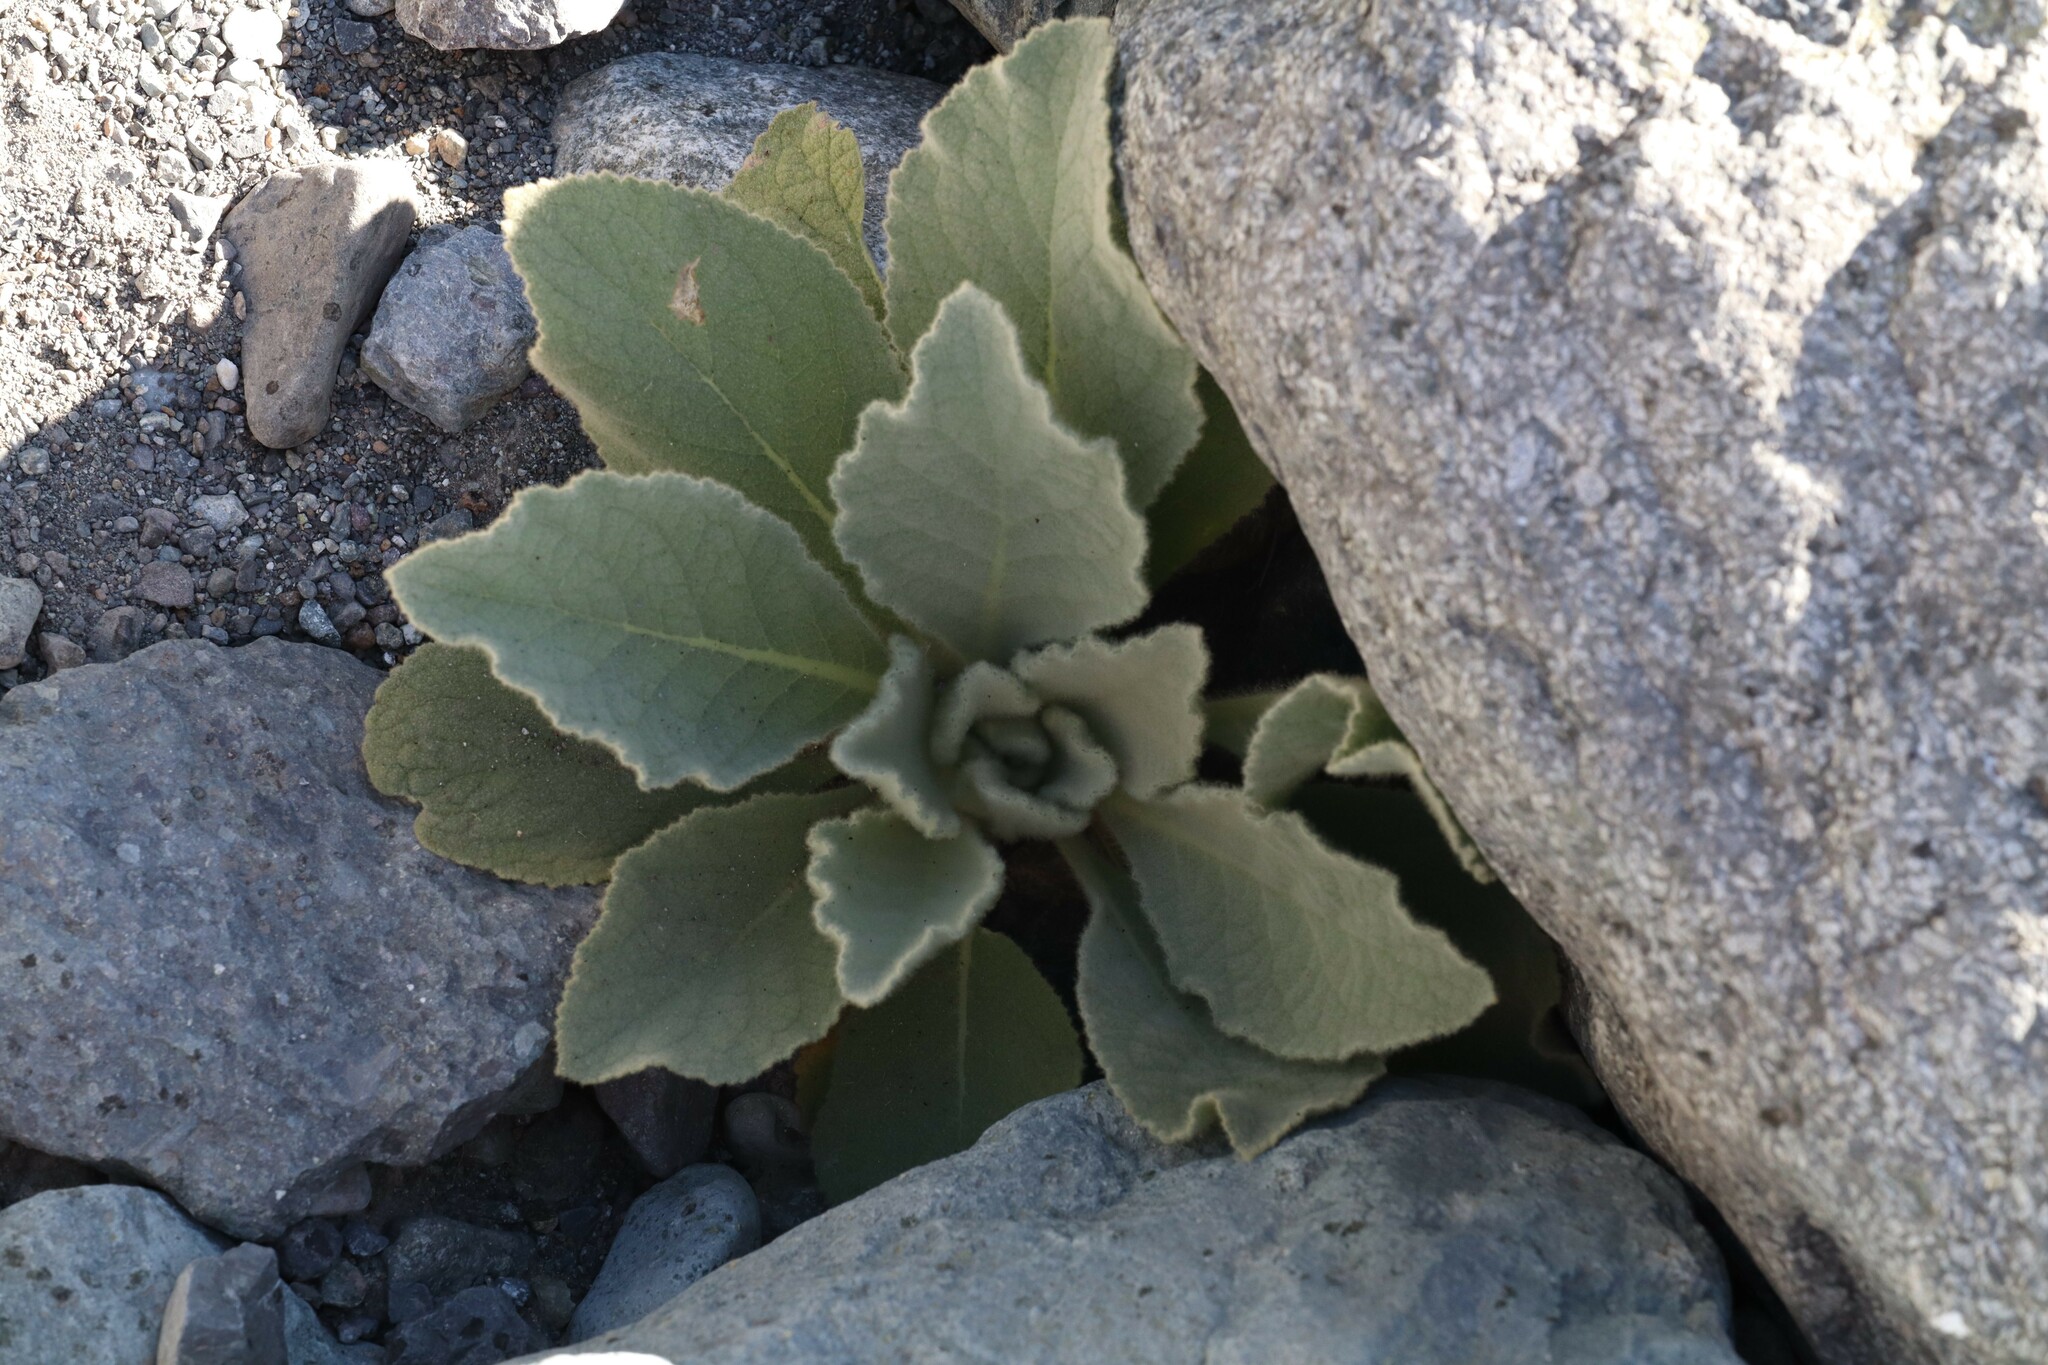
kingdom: Plantae
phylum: Tracheophyta
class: Magnoliopsida
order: Lamiales
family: Scrophulariaceae
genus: Verbascum
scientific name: Verbascum thapsus
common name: Common mullein
